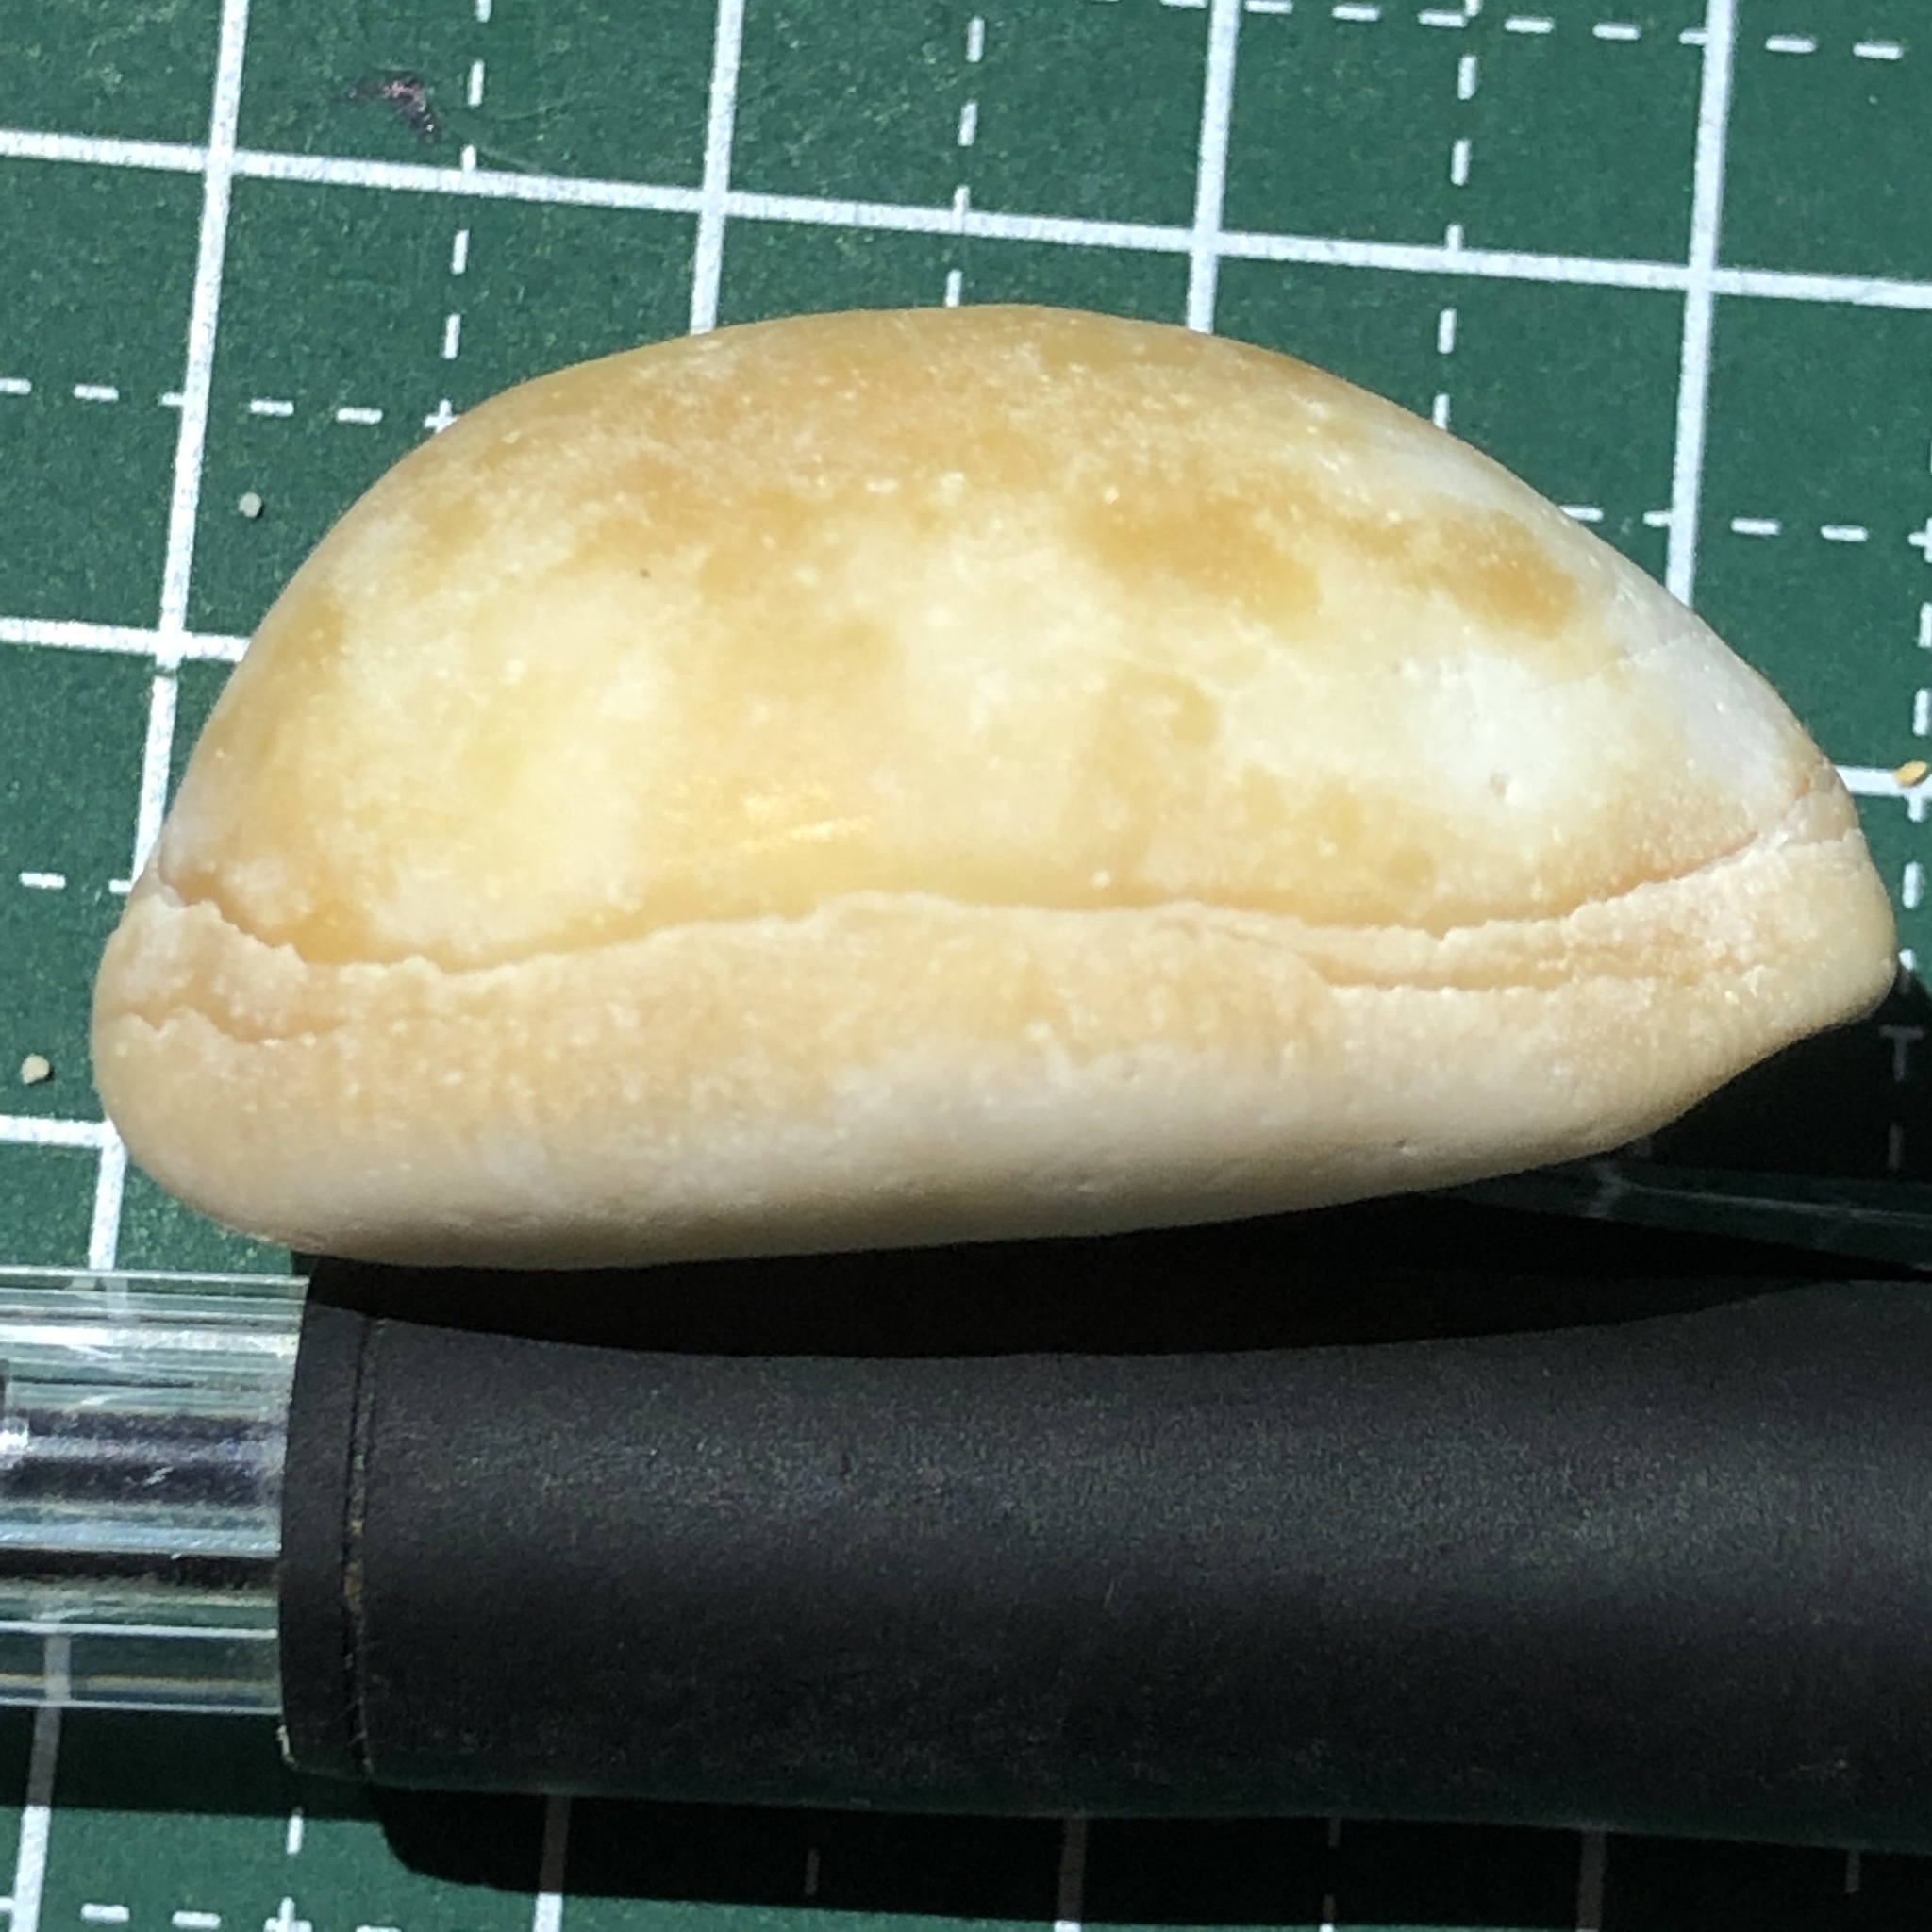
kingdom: Animalia
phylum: Mollusca
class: Gastropoda
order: Littorinimorpha
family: Cypraeidae
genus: Lyncina
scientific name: Lyncina carneola
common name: Purple-mouthed cowry
